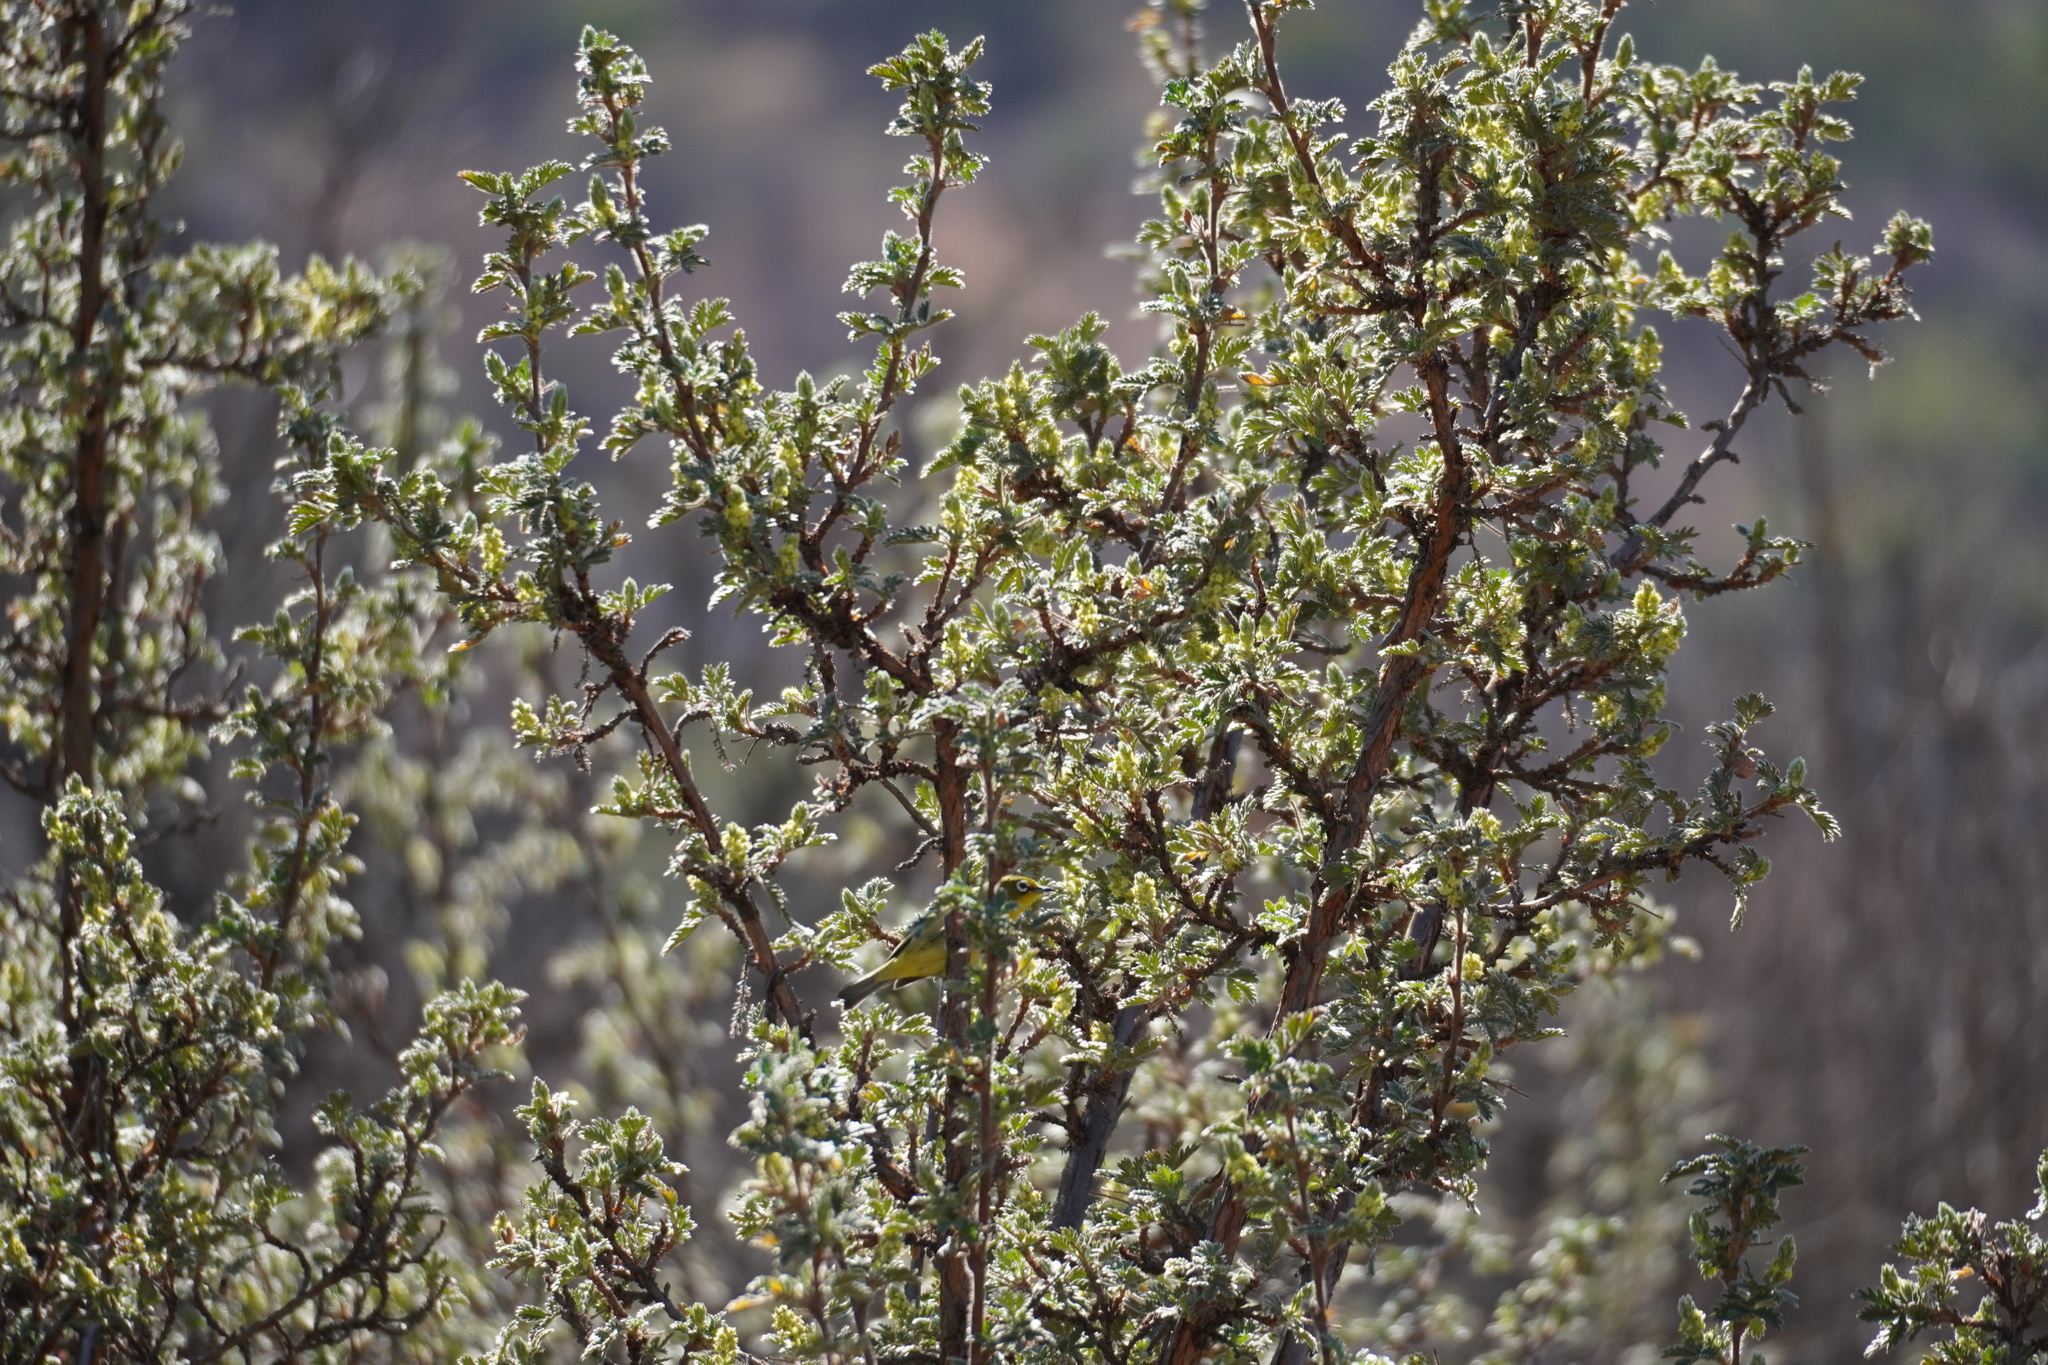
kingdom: Plantae
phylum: Tracheophyta
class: Magnoliopsida
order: Rosales
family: Rosaceae
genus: Leucosidea
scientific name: Leucosidea sericea
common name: Oldwood
